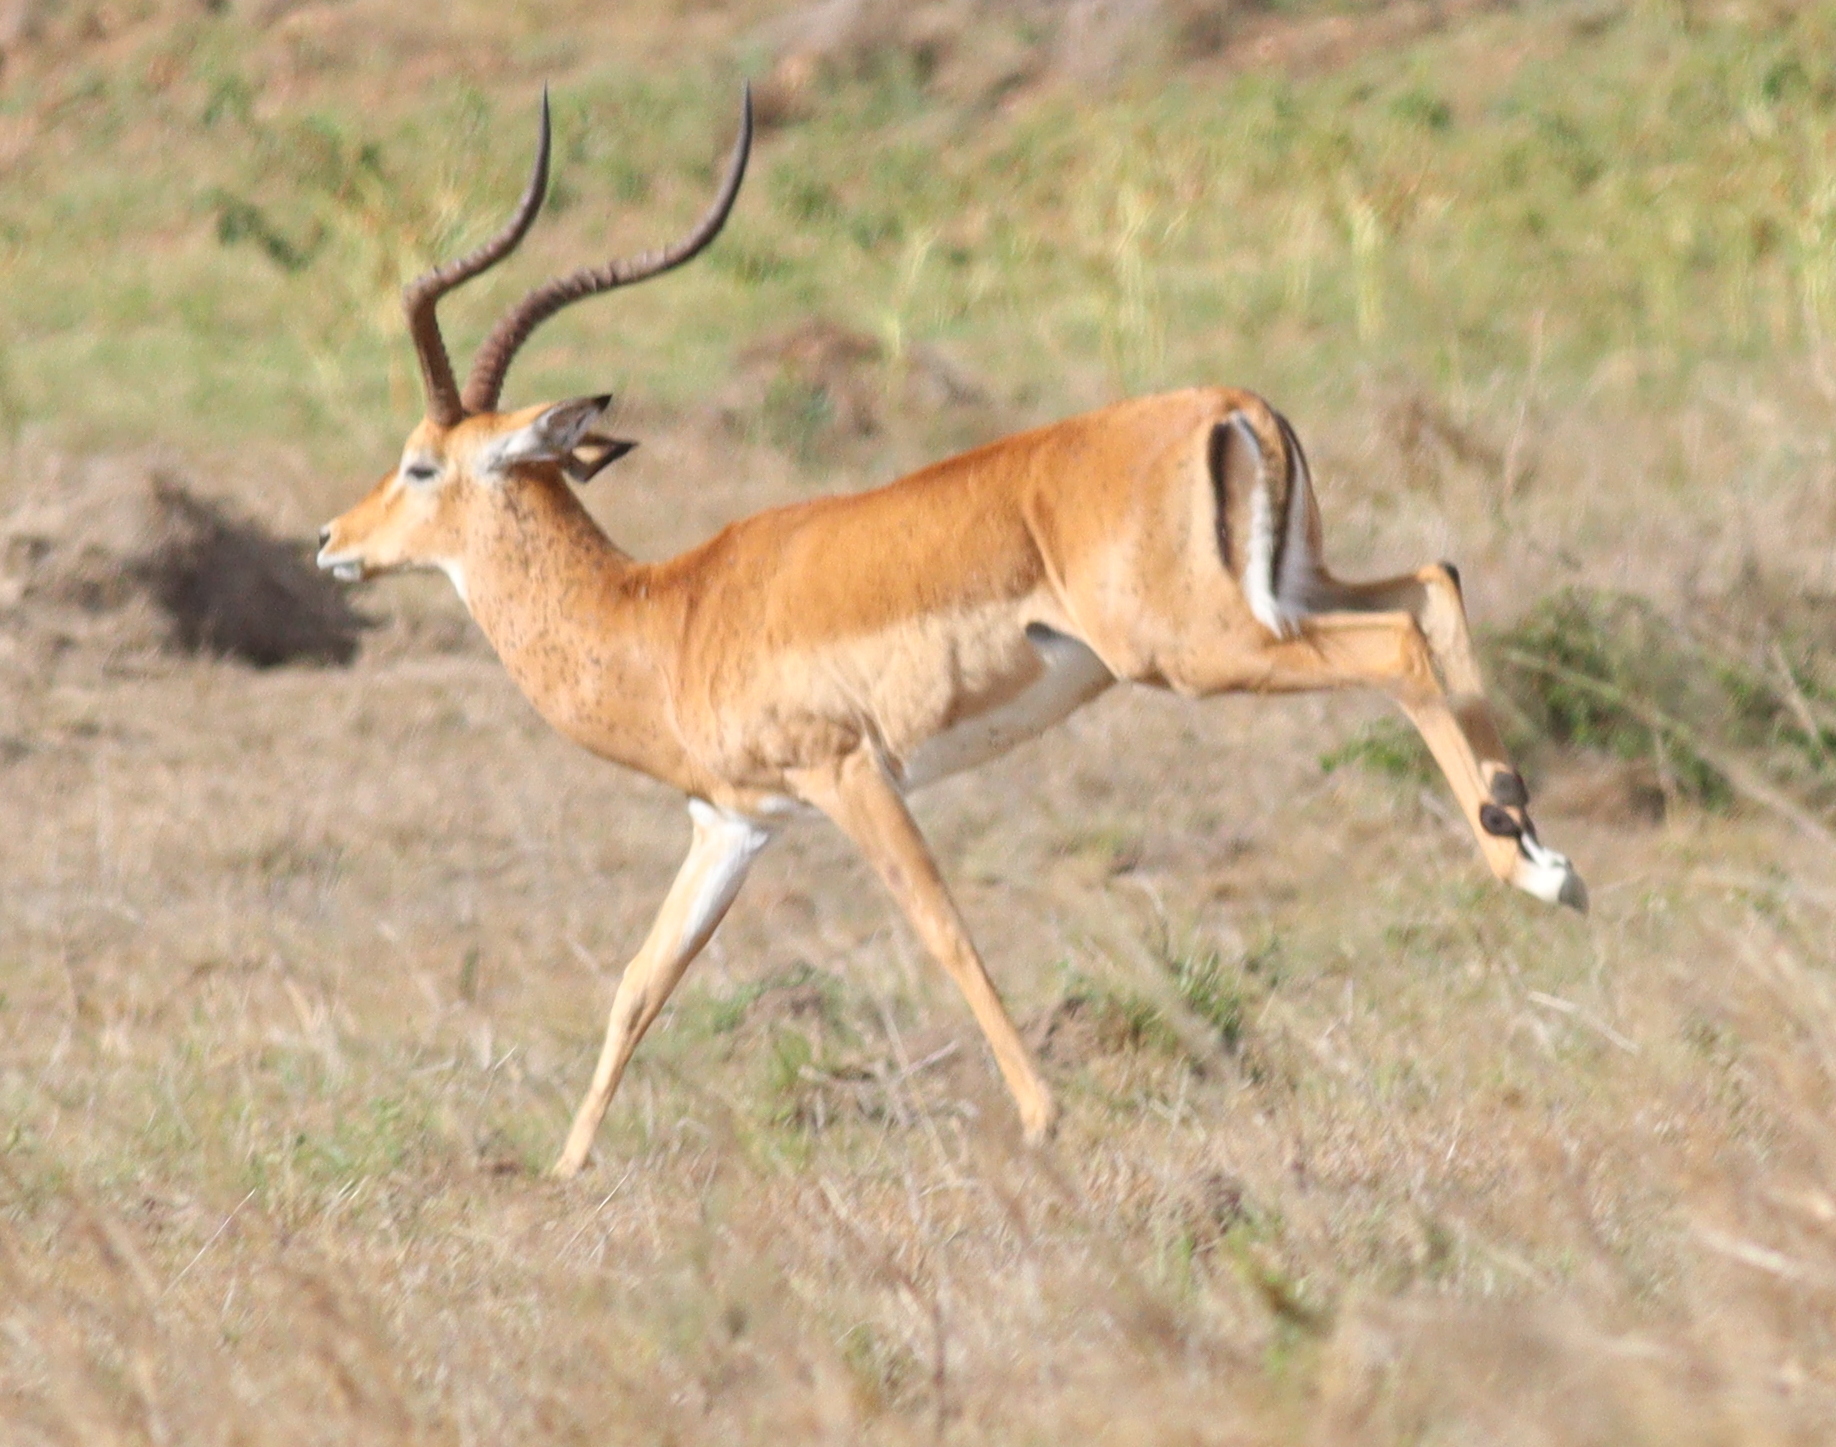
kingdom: Animalia
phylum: Chordata
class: Mammalia
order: Artiodactyla
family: Bovidae
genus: Aepyceros
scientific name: Aepyceros melampus
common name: Impala
